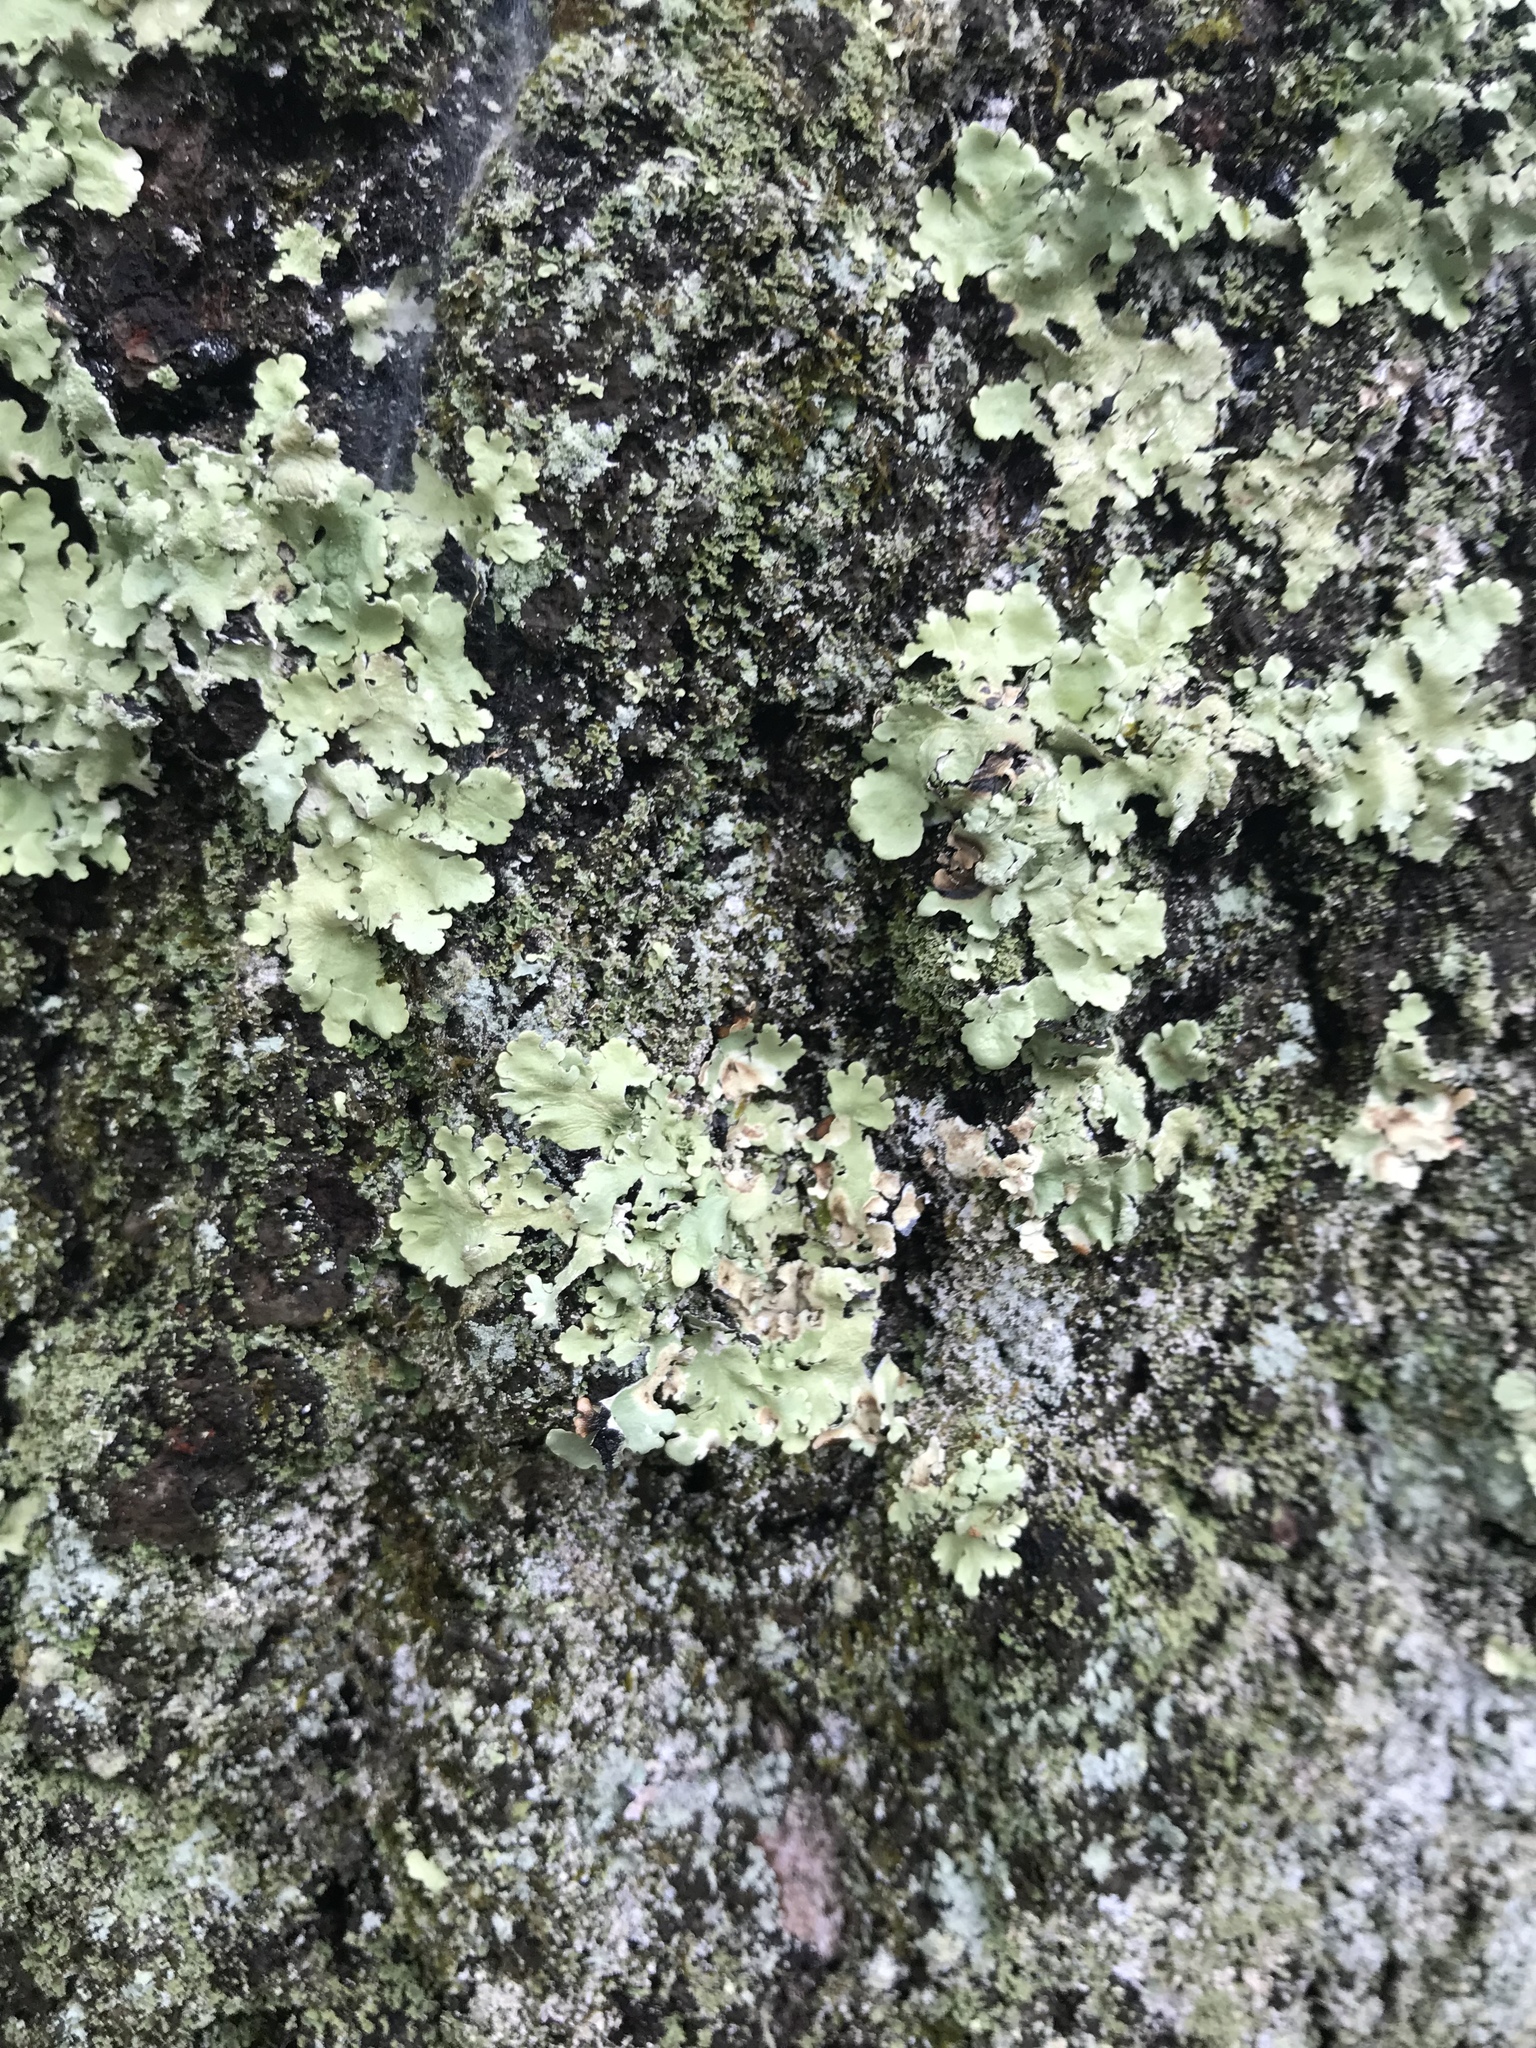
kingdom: Fungi
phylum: Ascomycota
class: Lecanoromycetes
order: Lecanorales
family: Parmeliaceae
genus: Flavoparmelia
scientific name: Flavoparmelia caperata
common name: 40-mile per hour lichen
